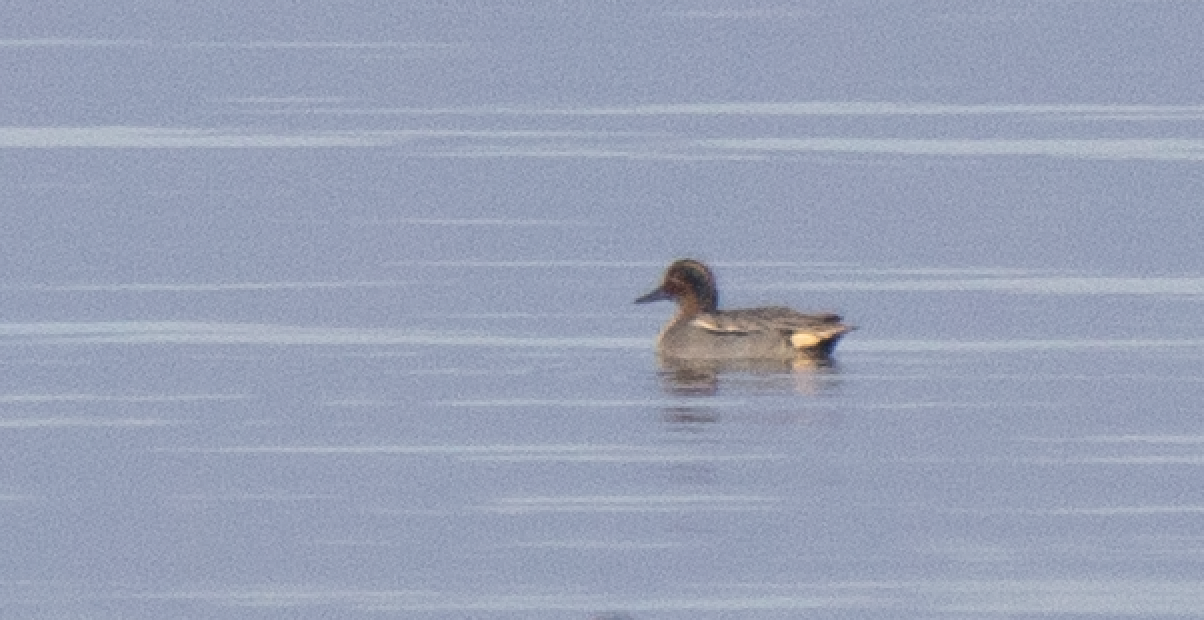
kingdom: Animalia
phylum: Chordata
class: Aves
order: Anseriformes
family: Anatidae
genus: Anas
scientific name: Anas crecca
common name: Eurasian teal
